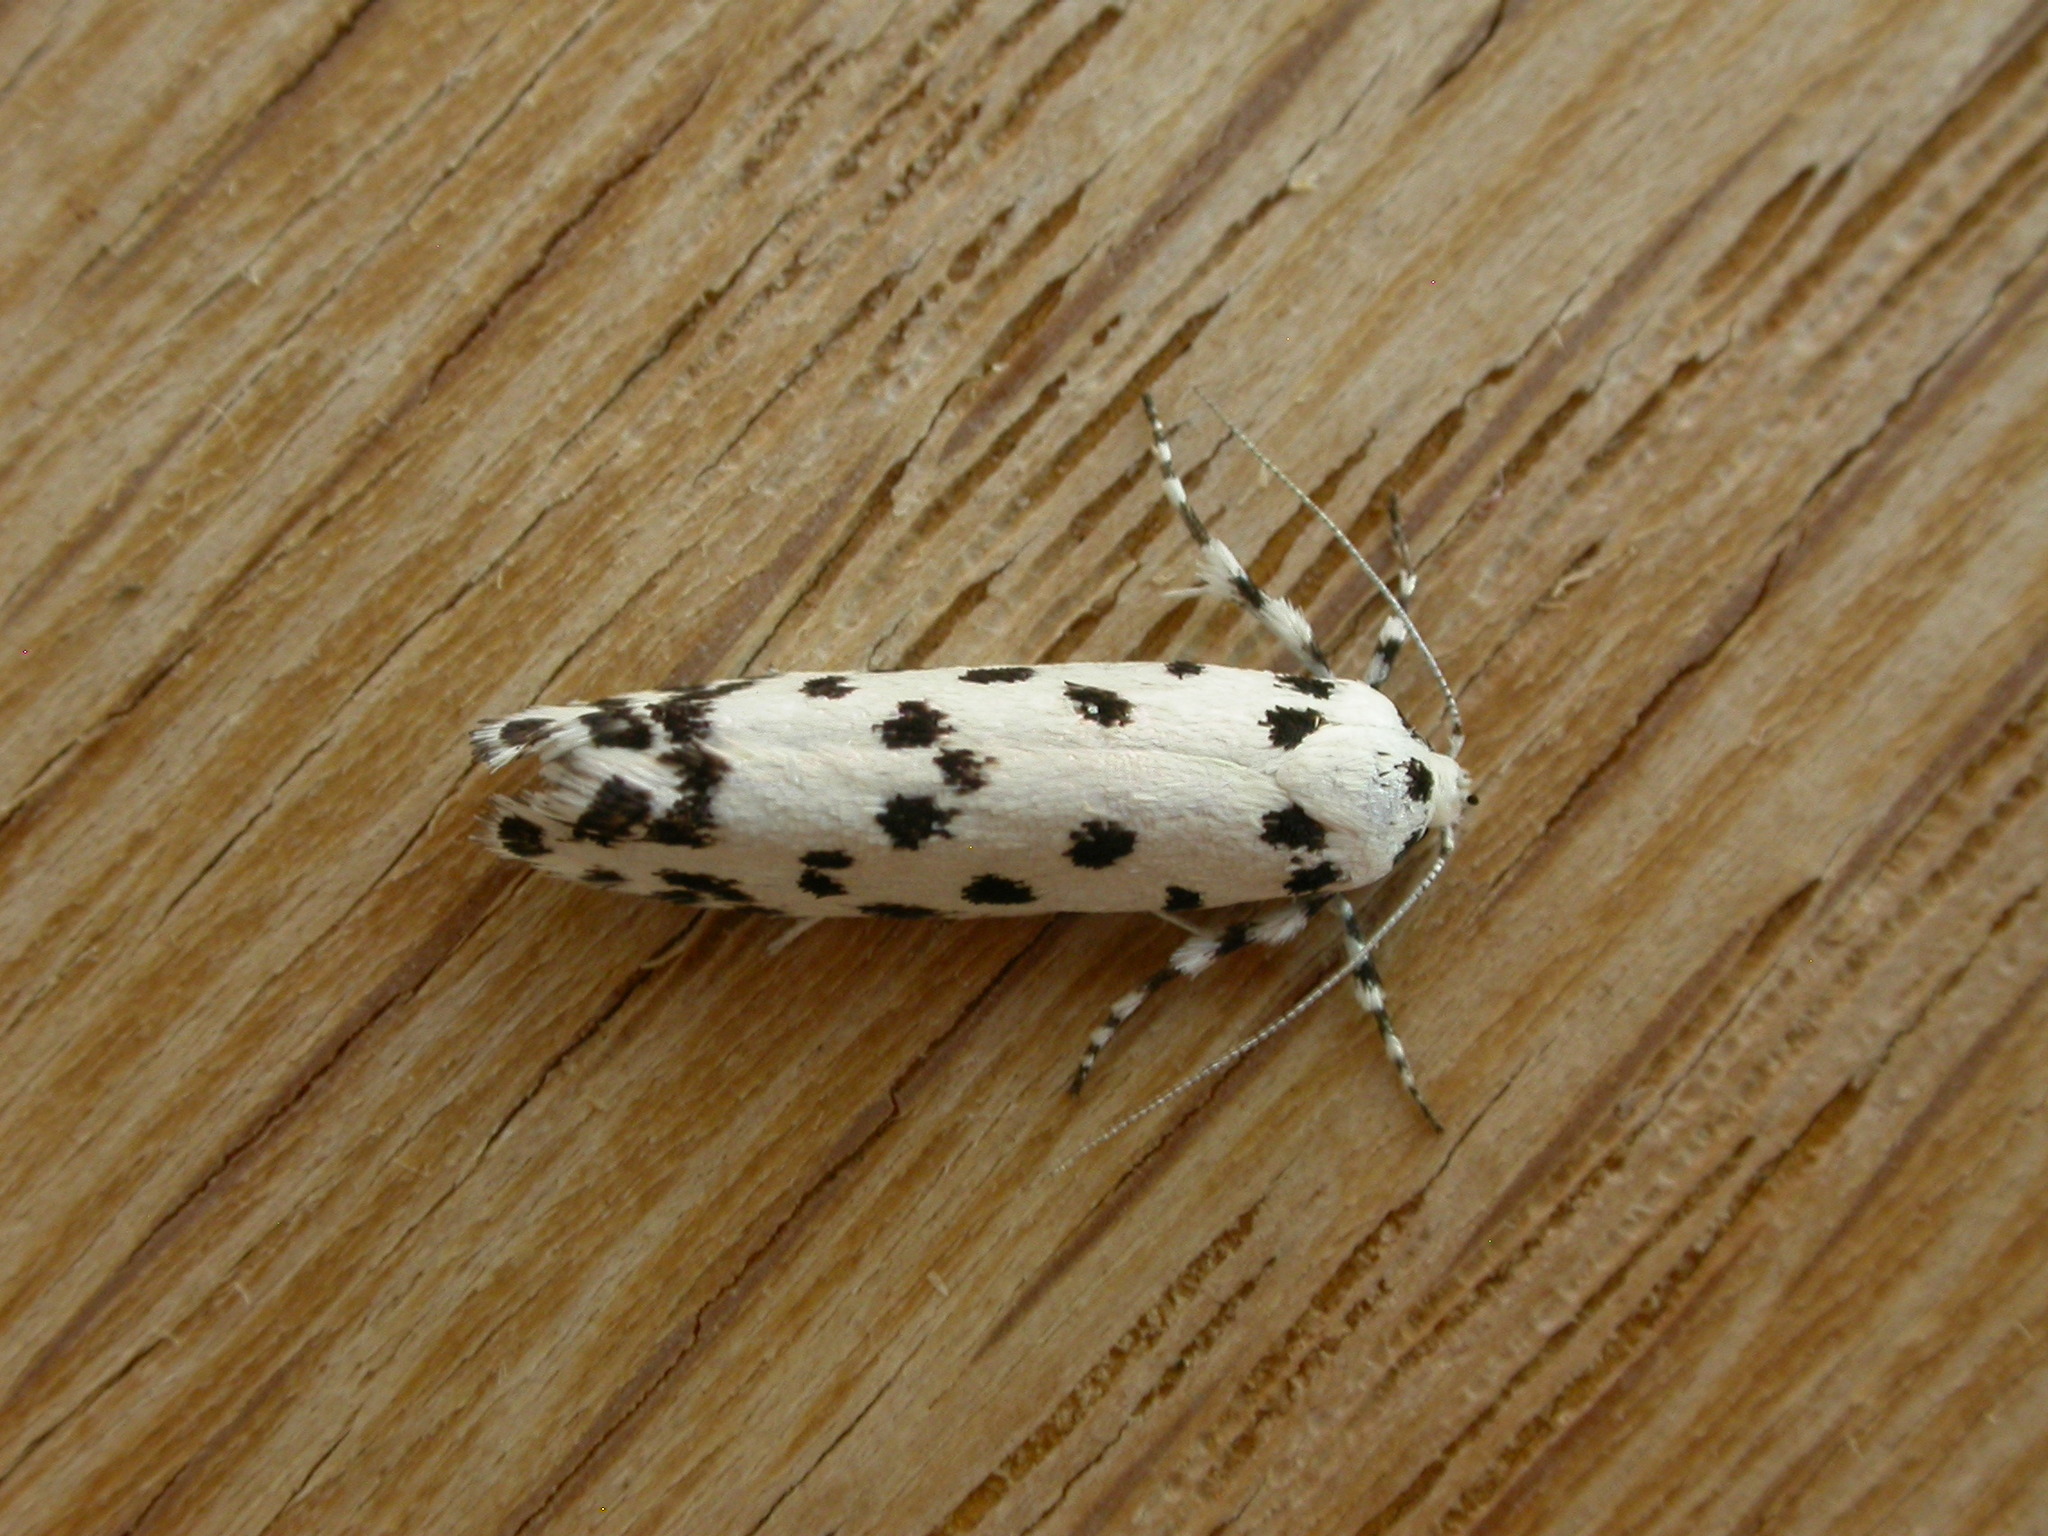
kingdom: Animalia
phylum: Arthropoda
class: Insecta
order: Lepidoptera
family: Xyloryctidae
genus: Lichenaula
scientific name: Lichenaula maculosa
